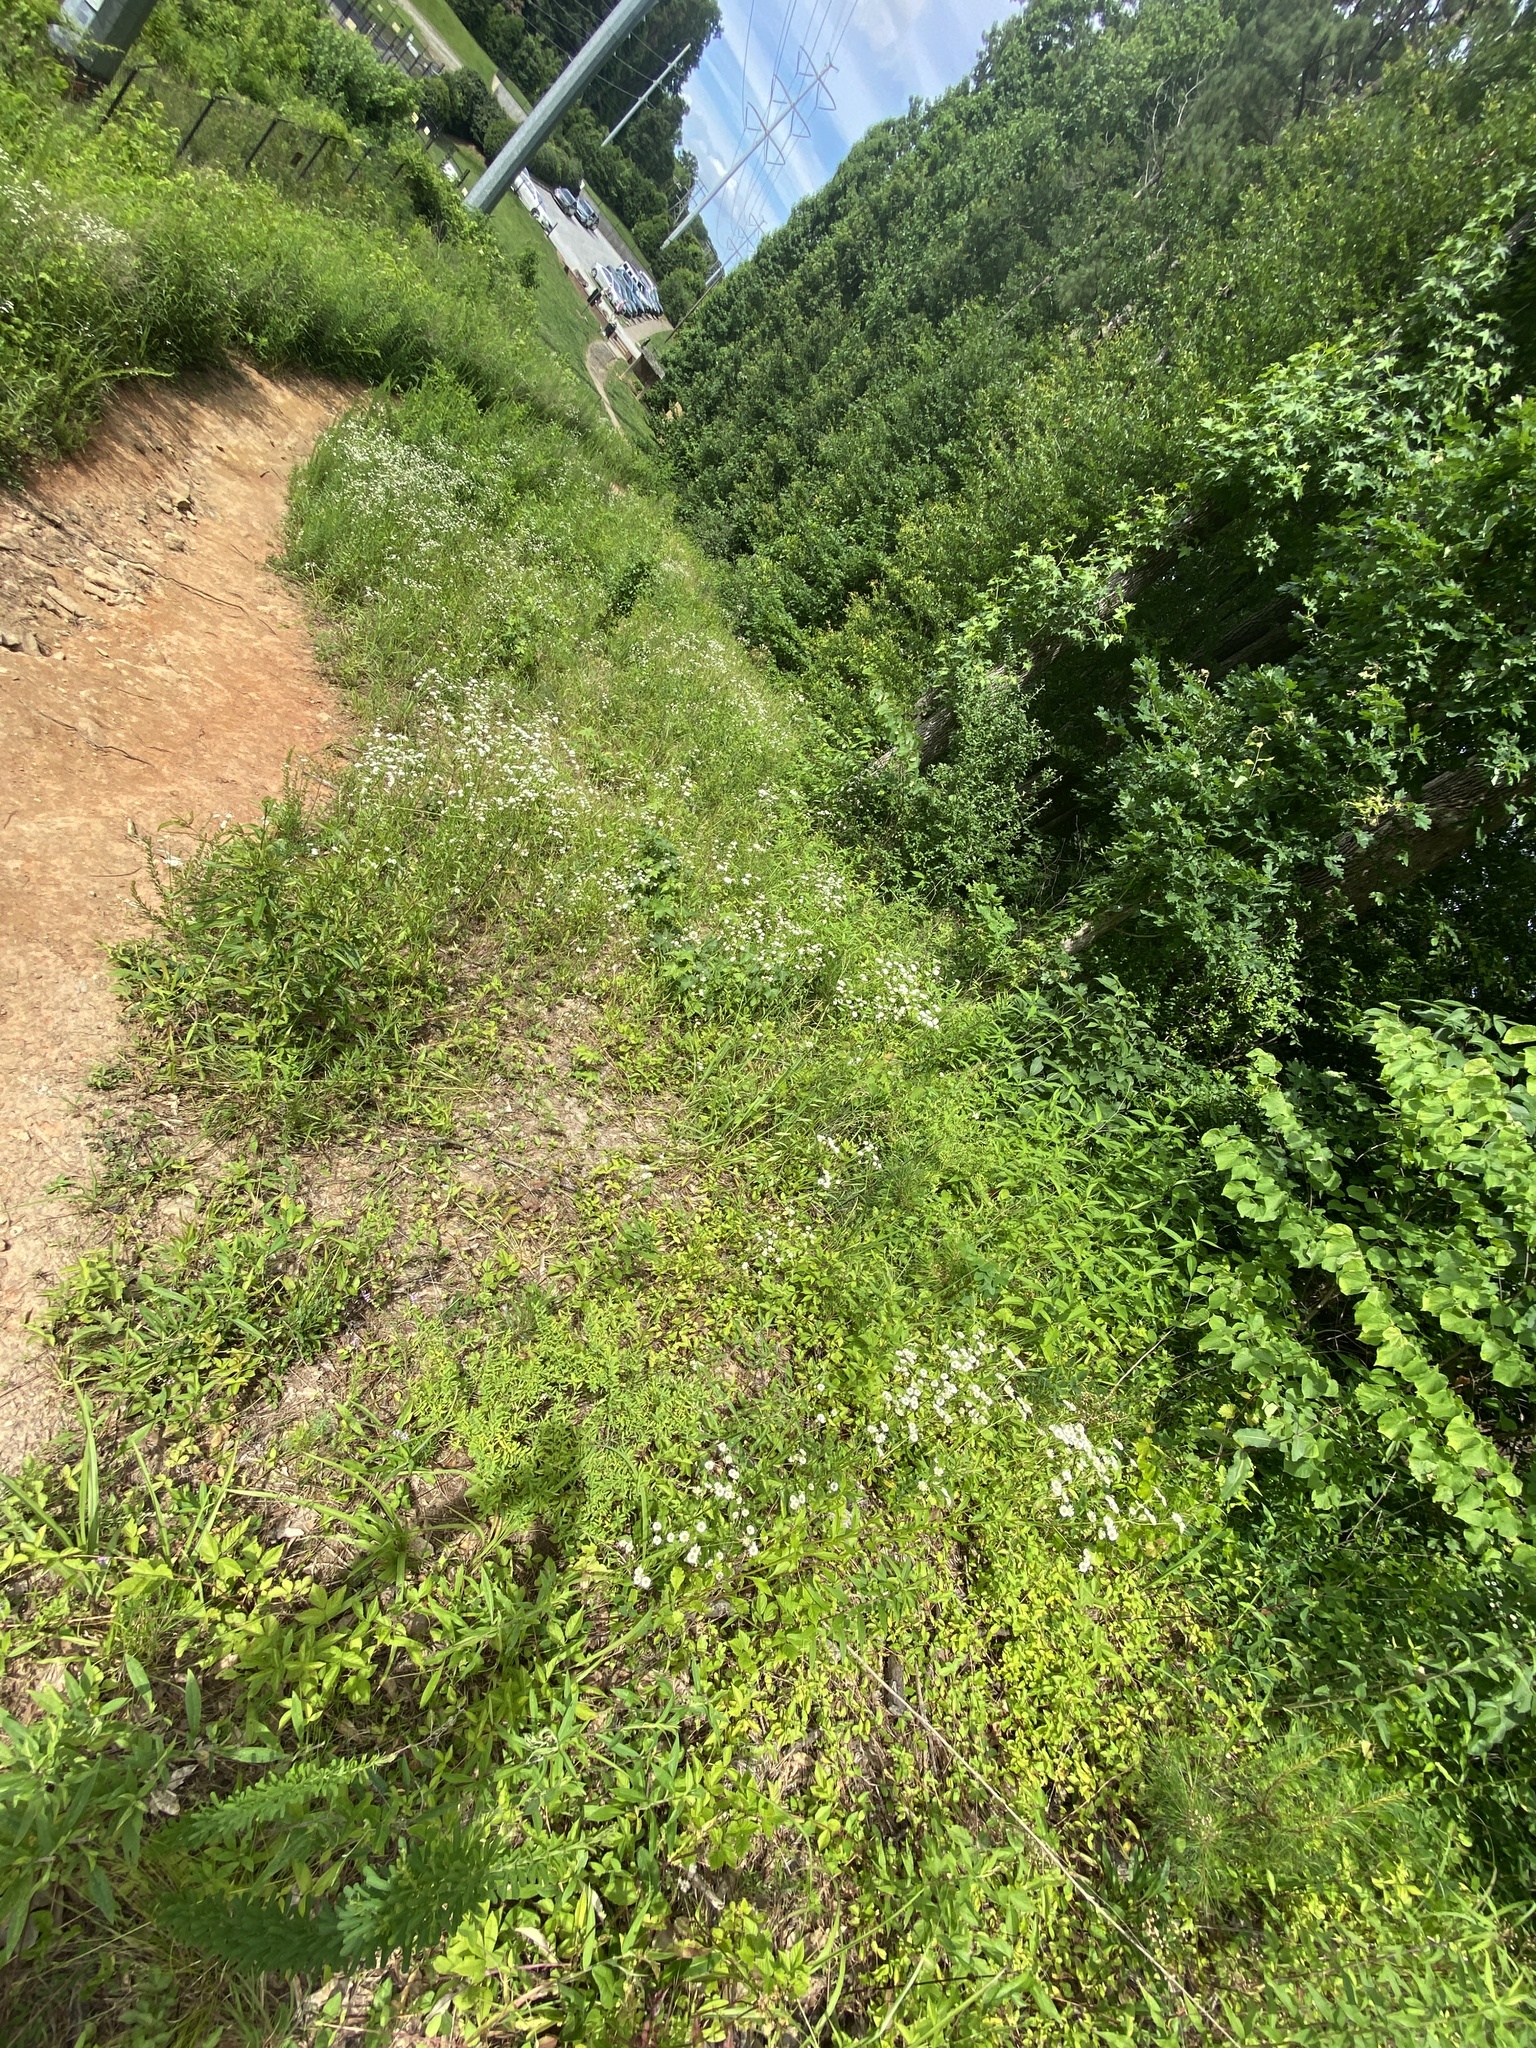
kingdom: Plantae
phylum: Tracheophyta
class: Magnoliopsida
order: Asterales
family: Asteraceae
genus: Erigeron
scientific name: Erigeron strigosus
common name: Common eastern fleabane
